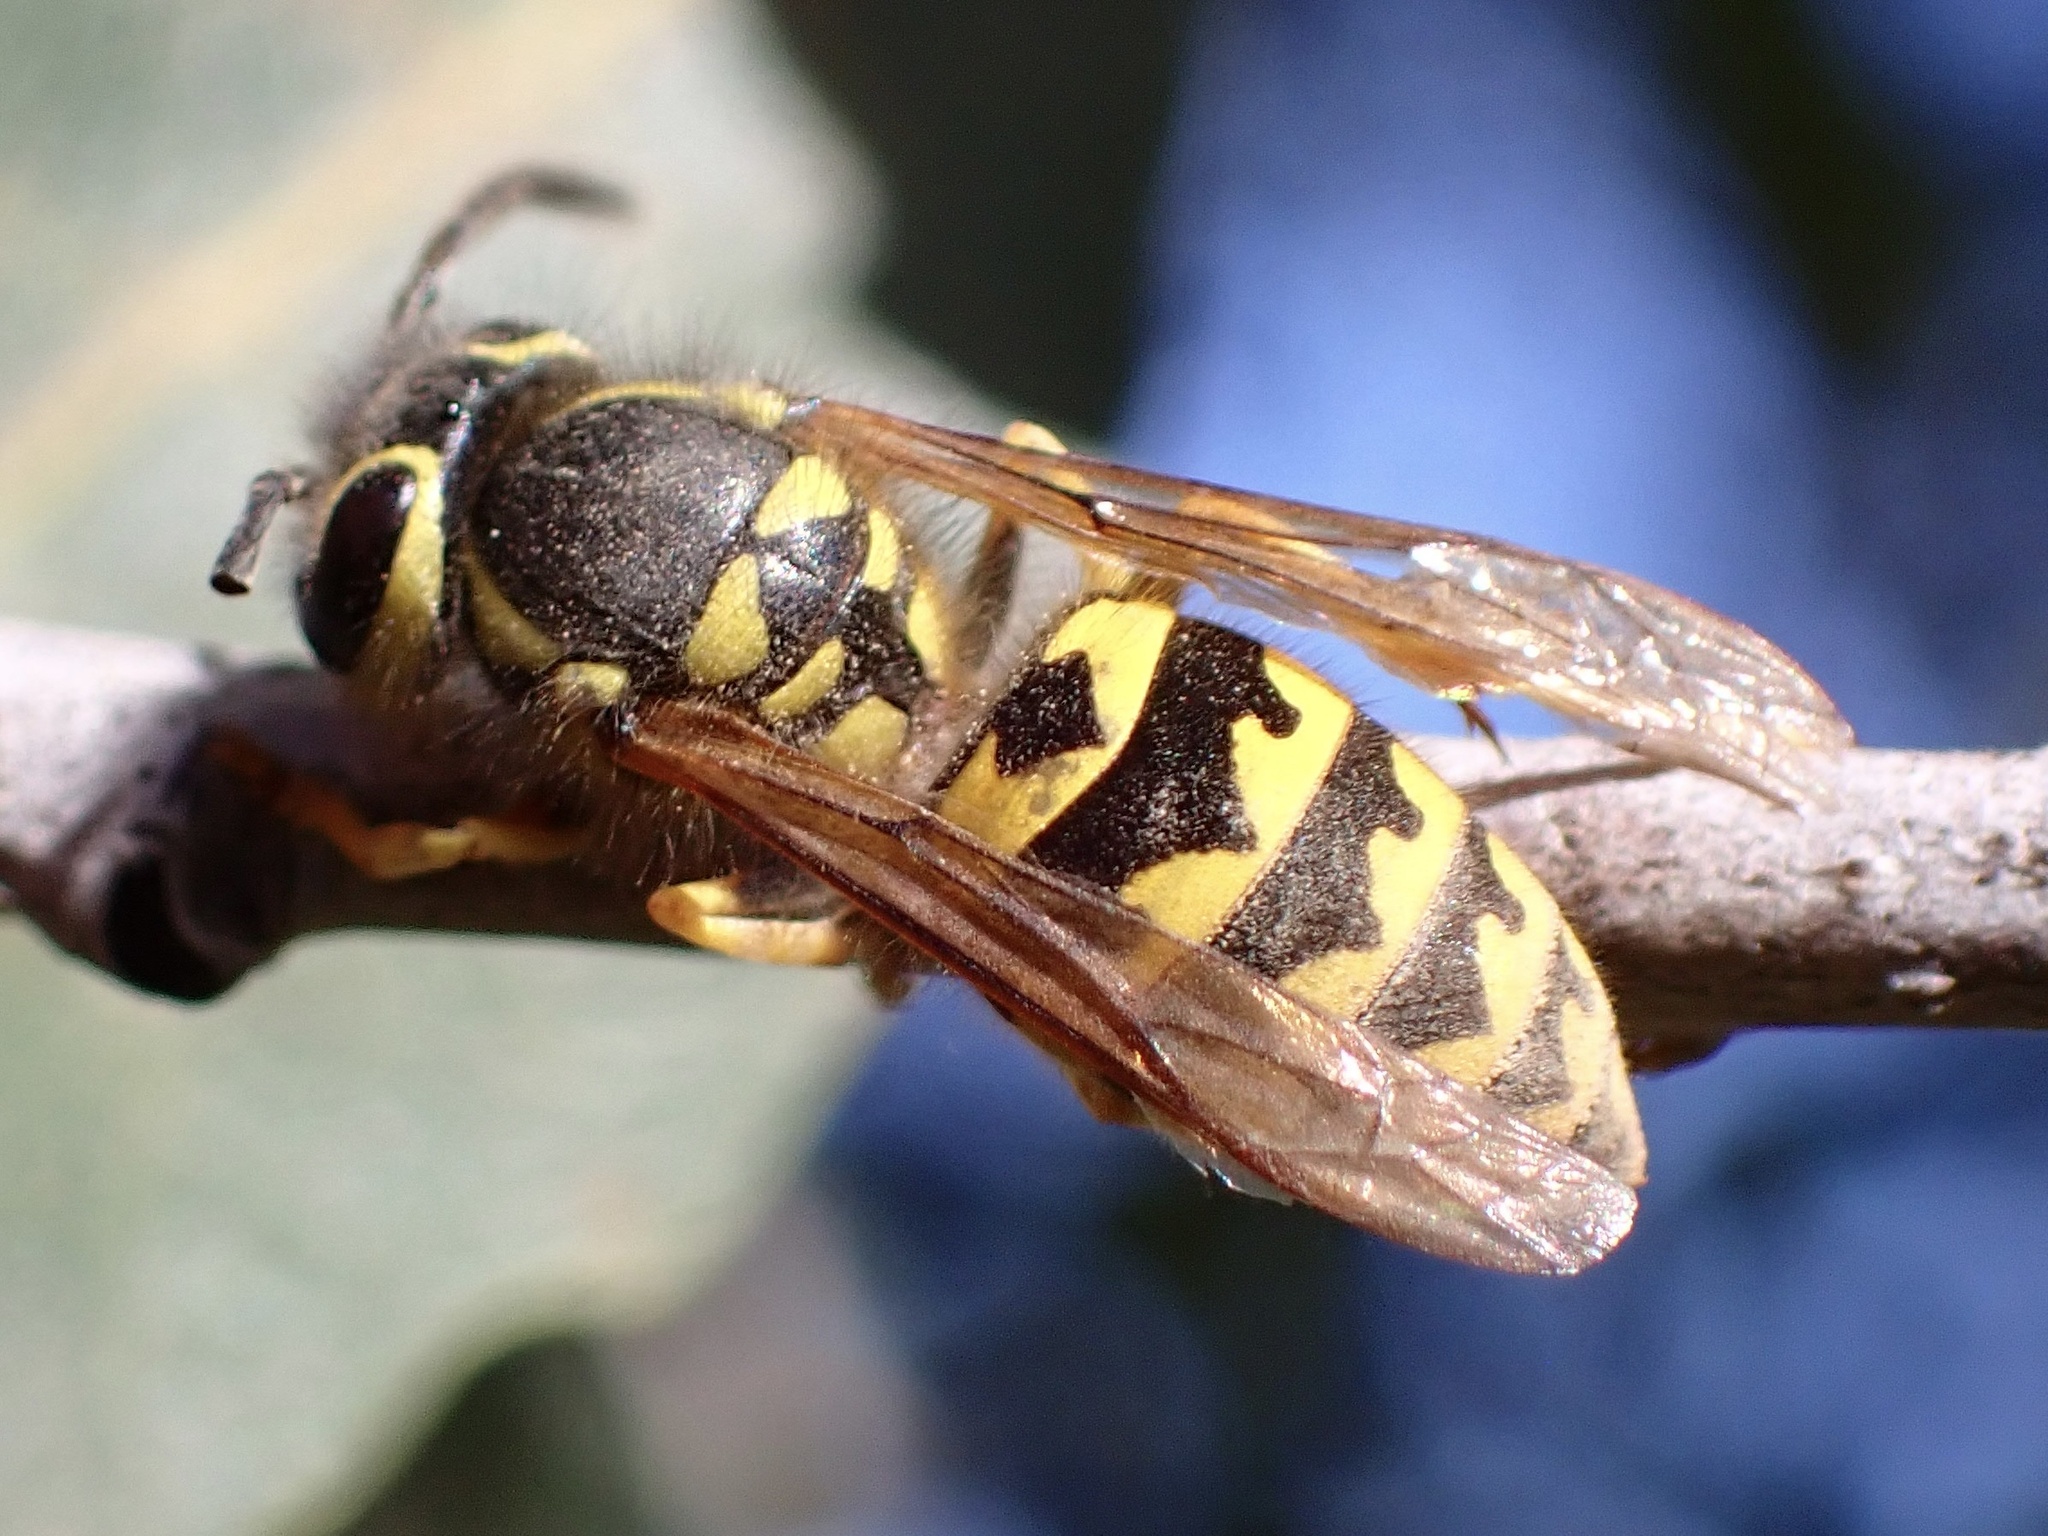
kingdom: Animalia
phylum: Arthropoda
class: Insecta
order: Hymenoptera
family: Vespidae
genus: Vespula
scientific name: Vespula pensylvanica
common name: Western yellowjacket
